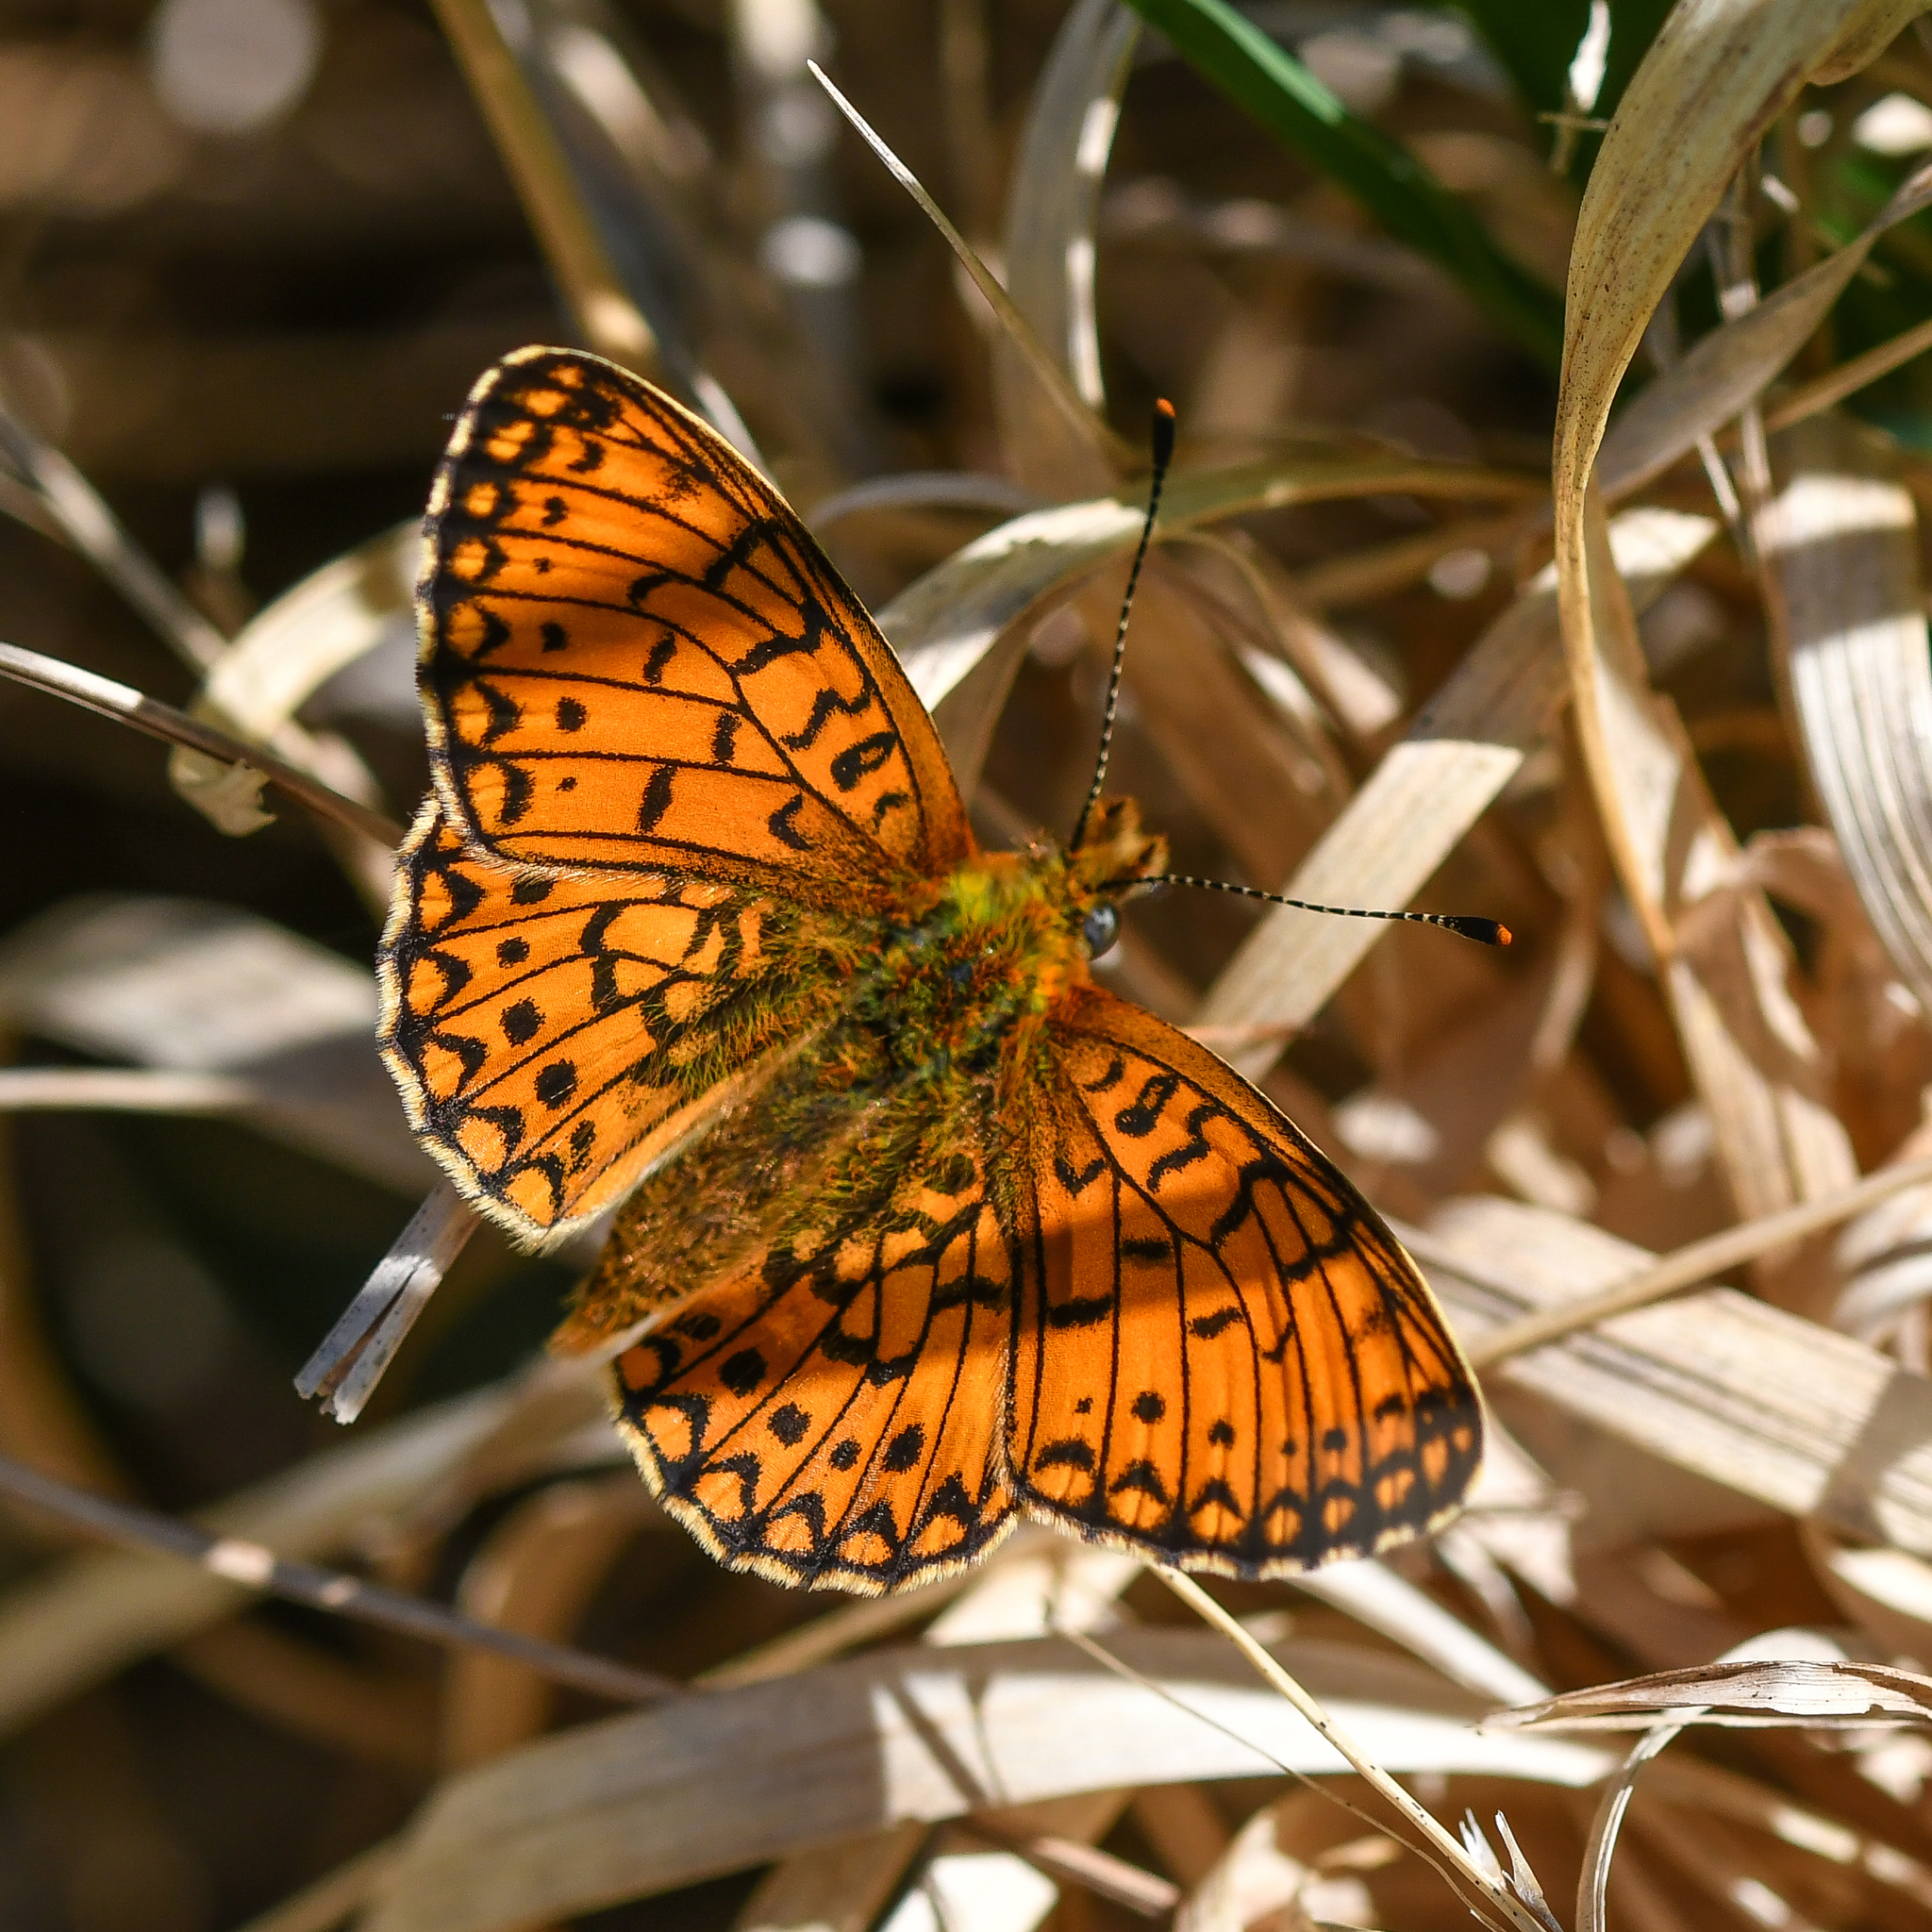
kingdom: Animalia
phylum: Arthropoda
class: Insecta
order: Lepidoptera
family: Nymphalidae
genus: Boloria
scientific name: Boloria selene
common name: Small pearl-bordered fritillary
